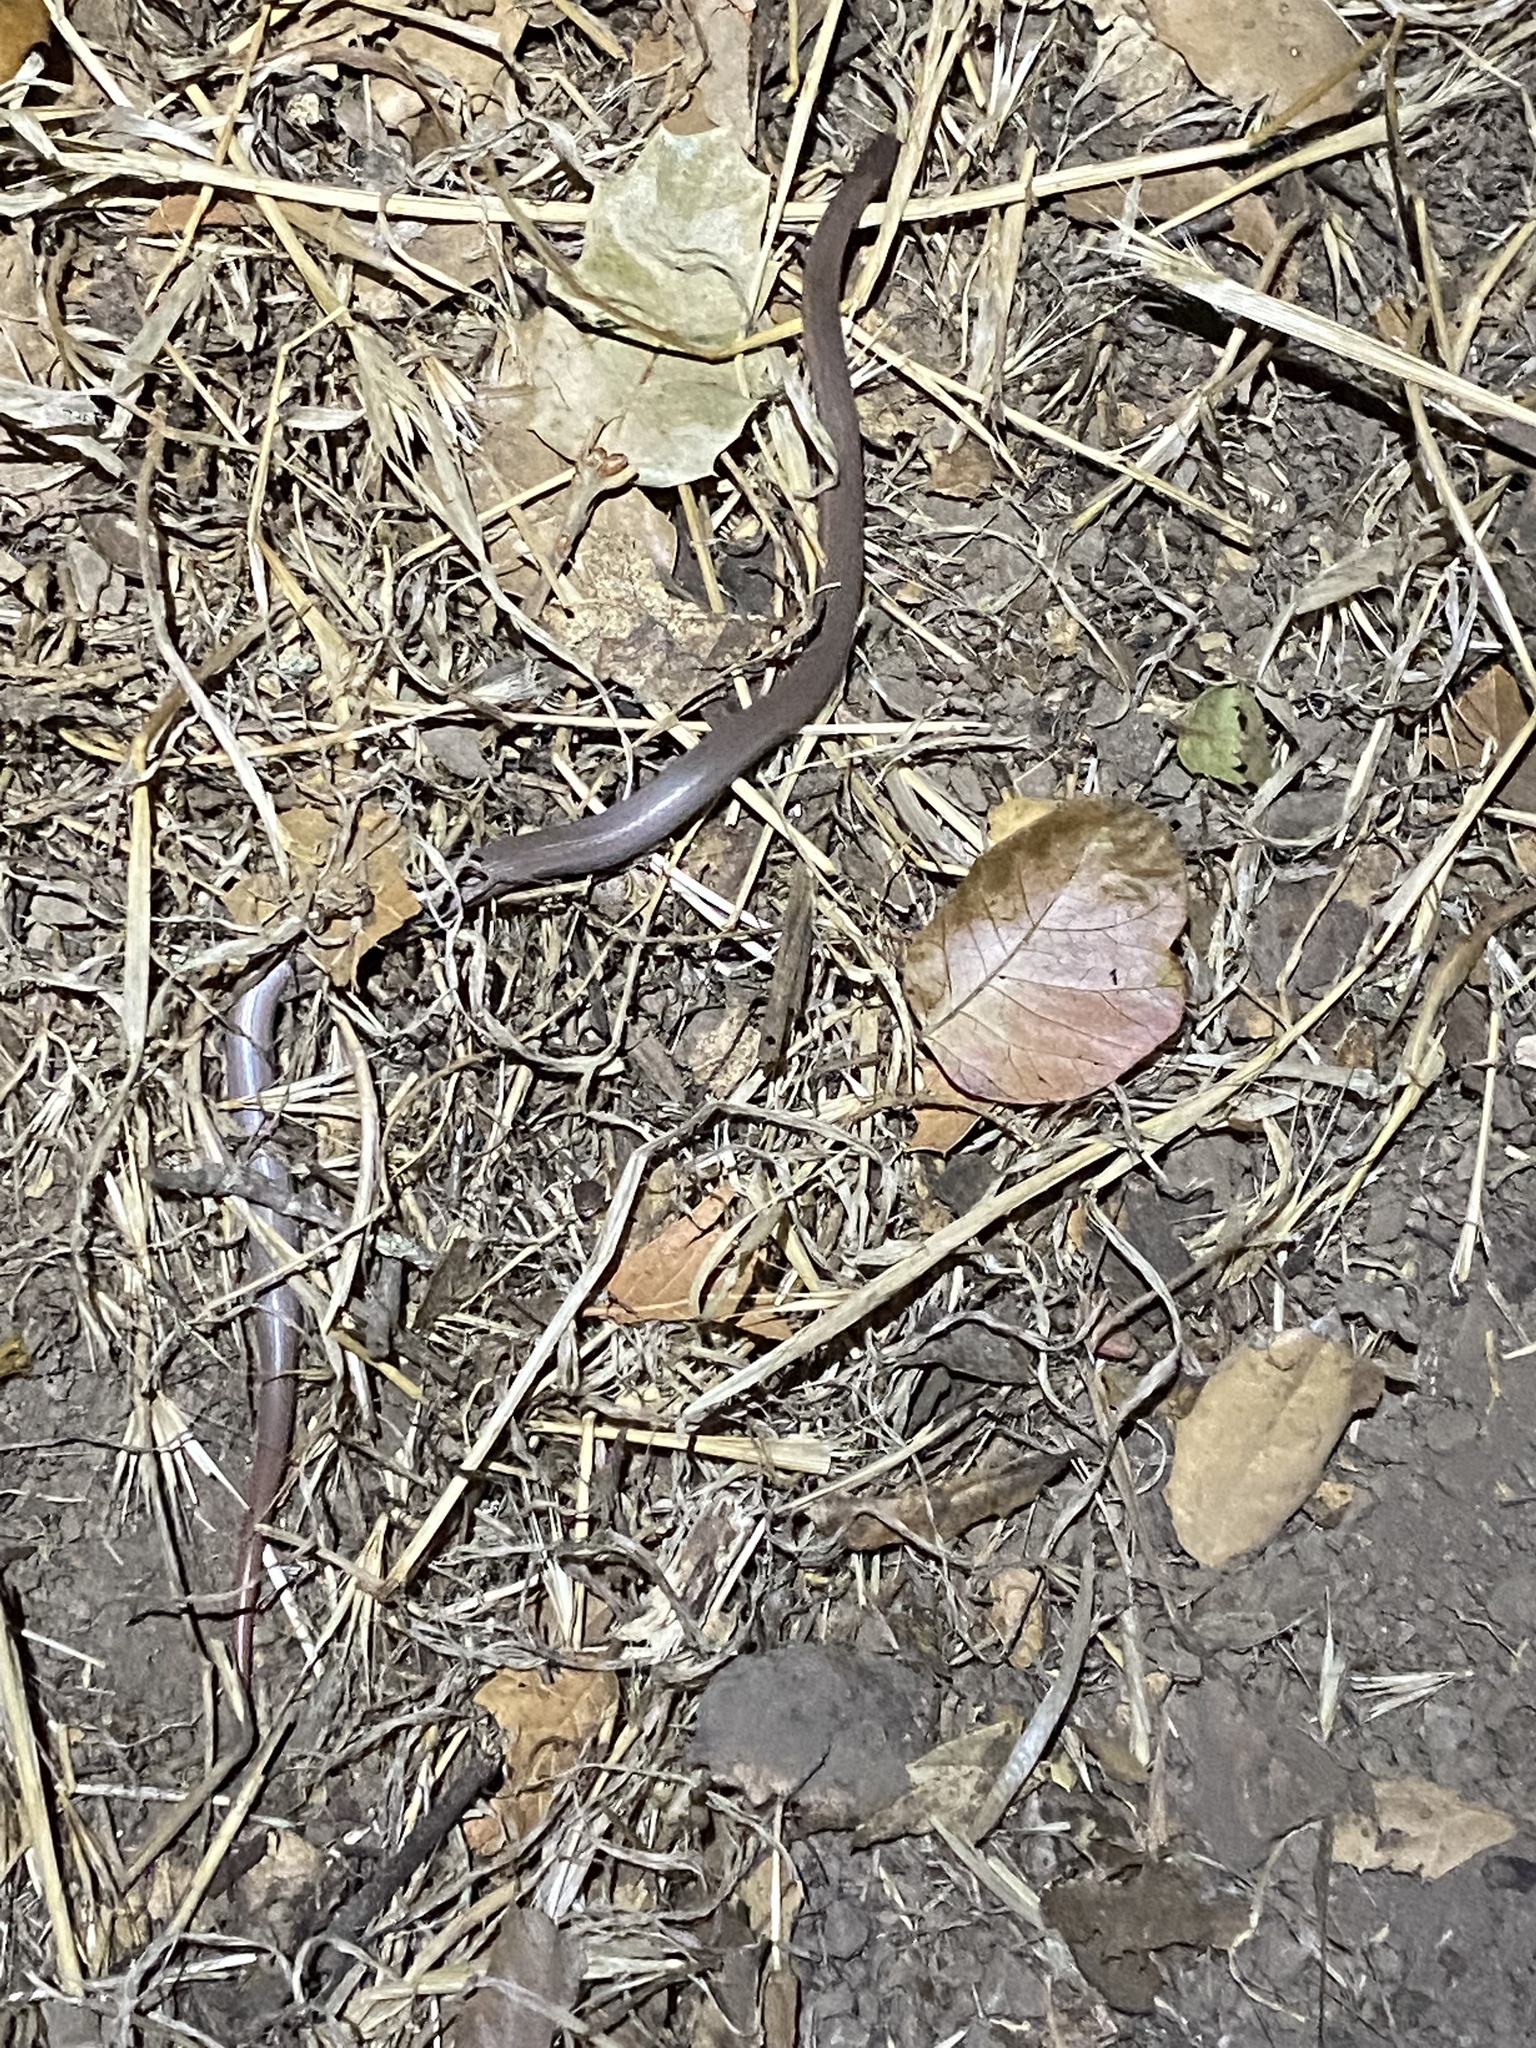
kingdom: Animalia
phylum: Chordata
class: Squamata
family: Colubridae
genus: Contia
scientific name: Contia tenuis
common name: Sharptail snake
